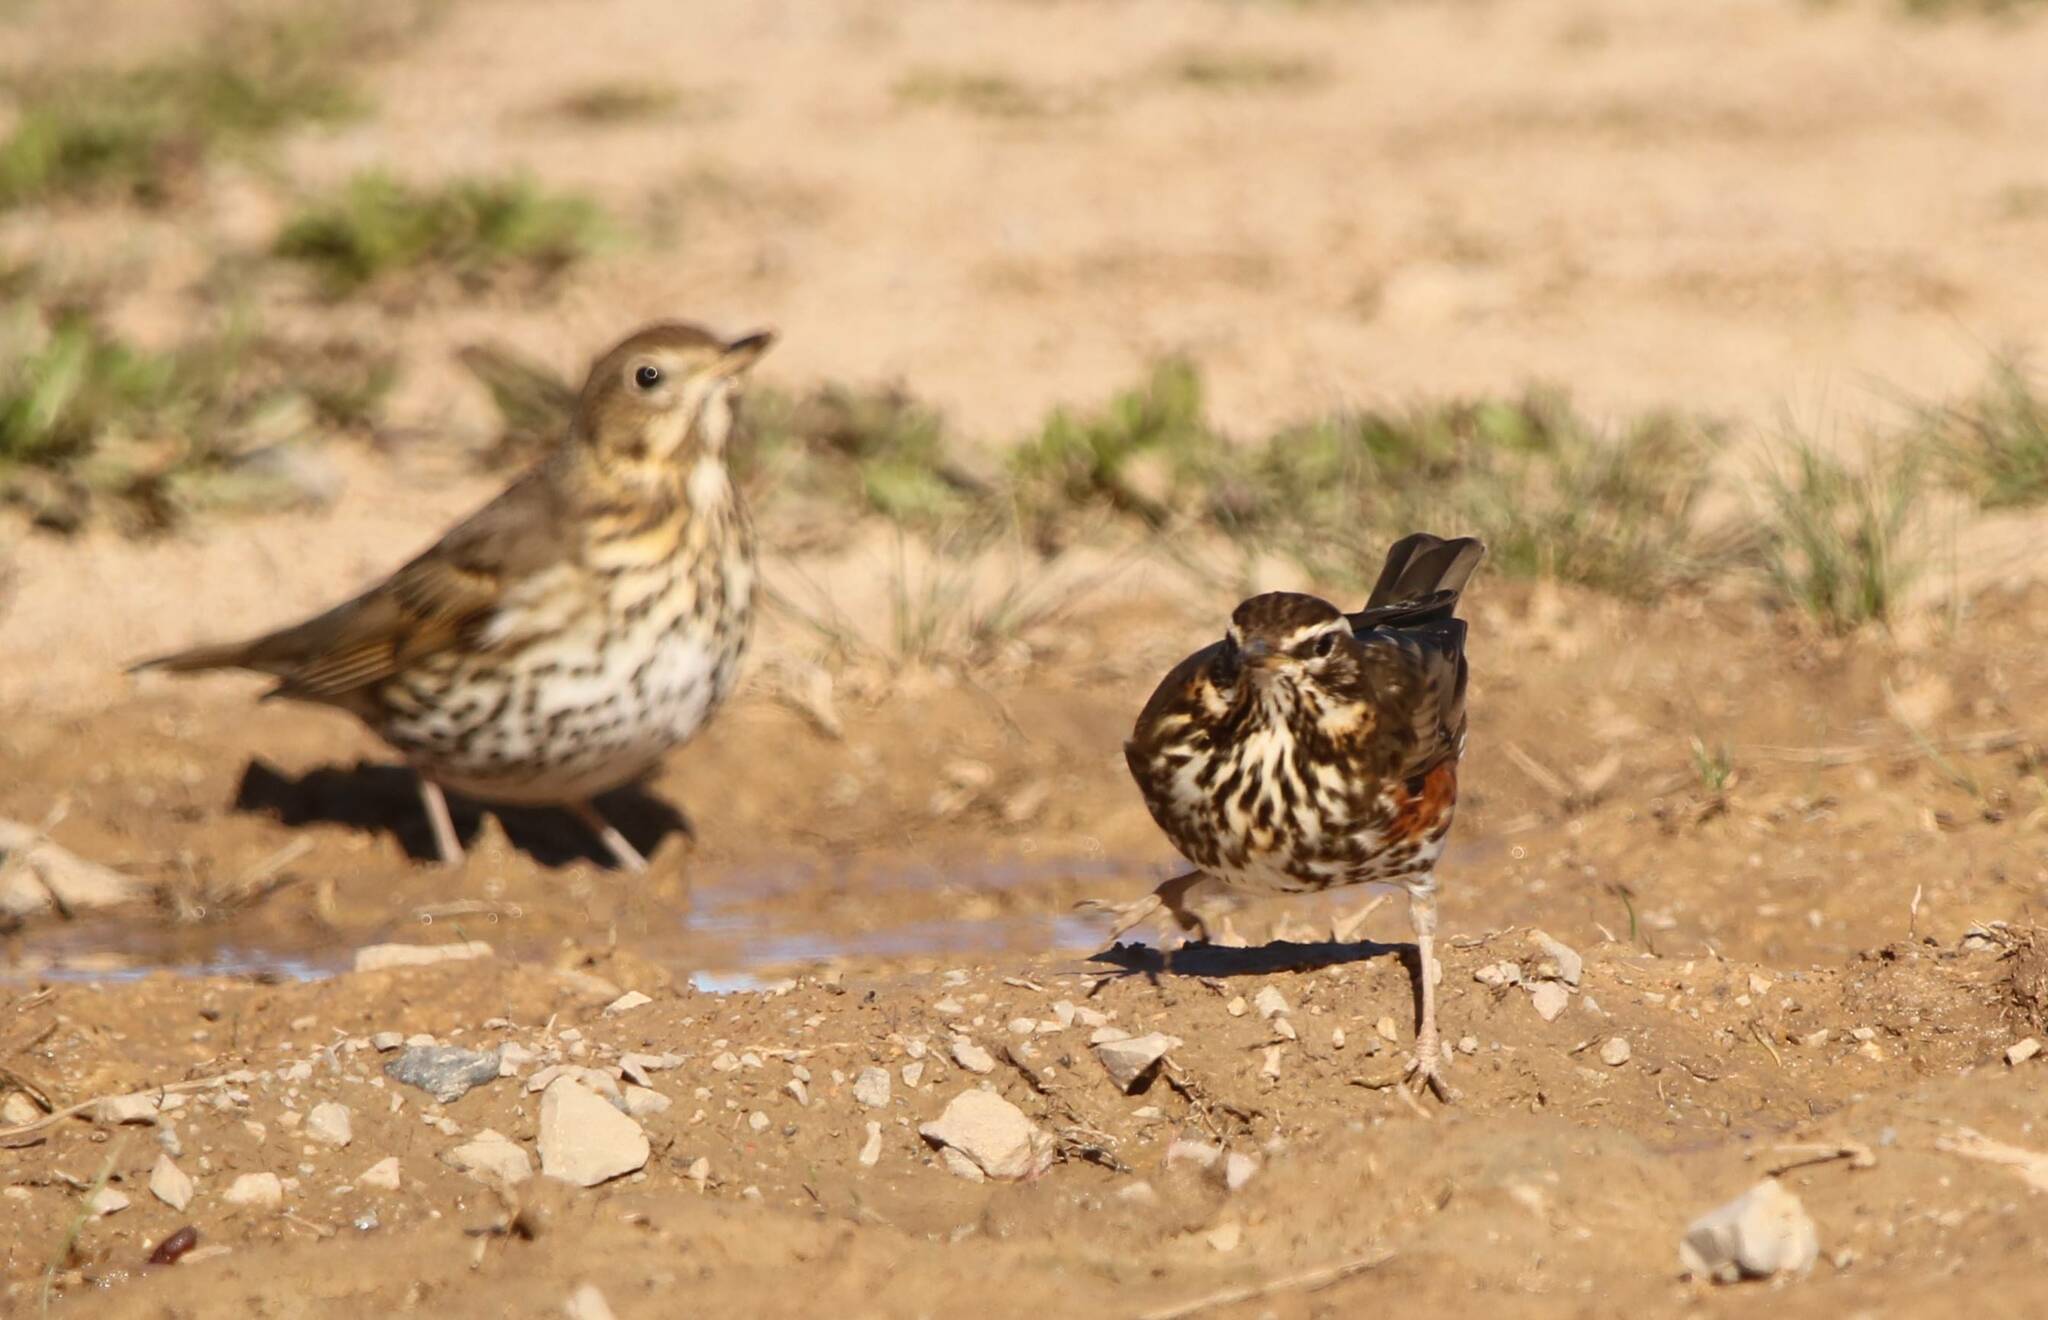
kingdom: Animalia
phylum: Chordata
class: Aves
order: Passeriformes
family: Turdidae
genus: Turdus
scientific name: Turdus philomelos
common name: Song thrush
